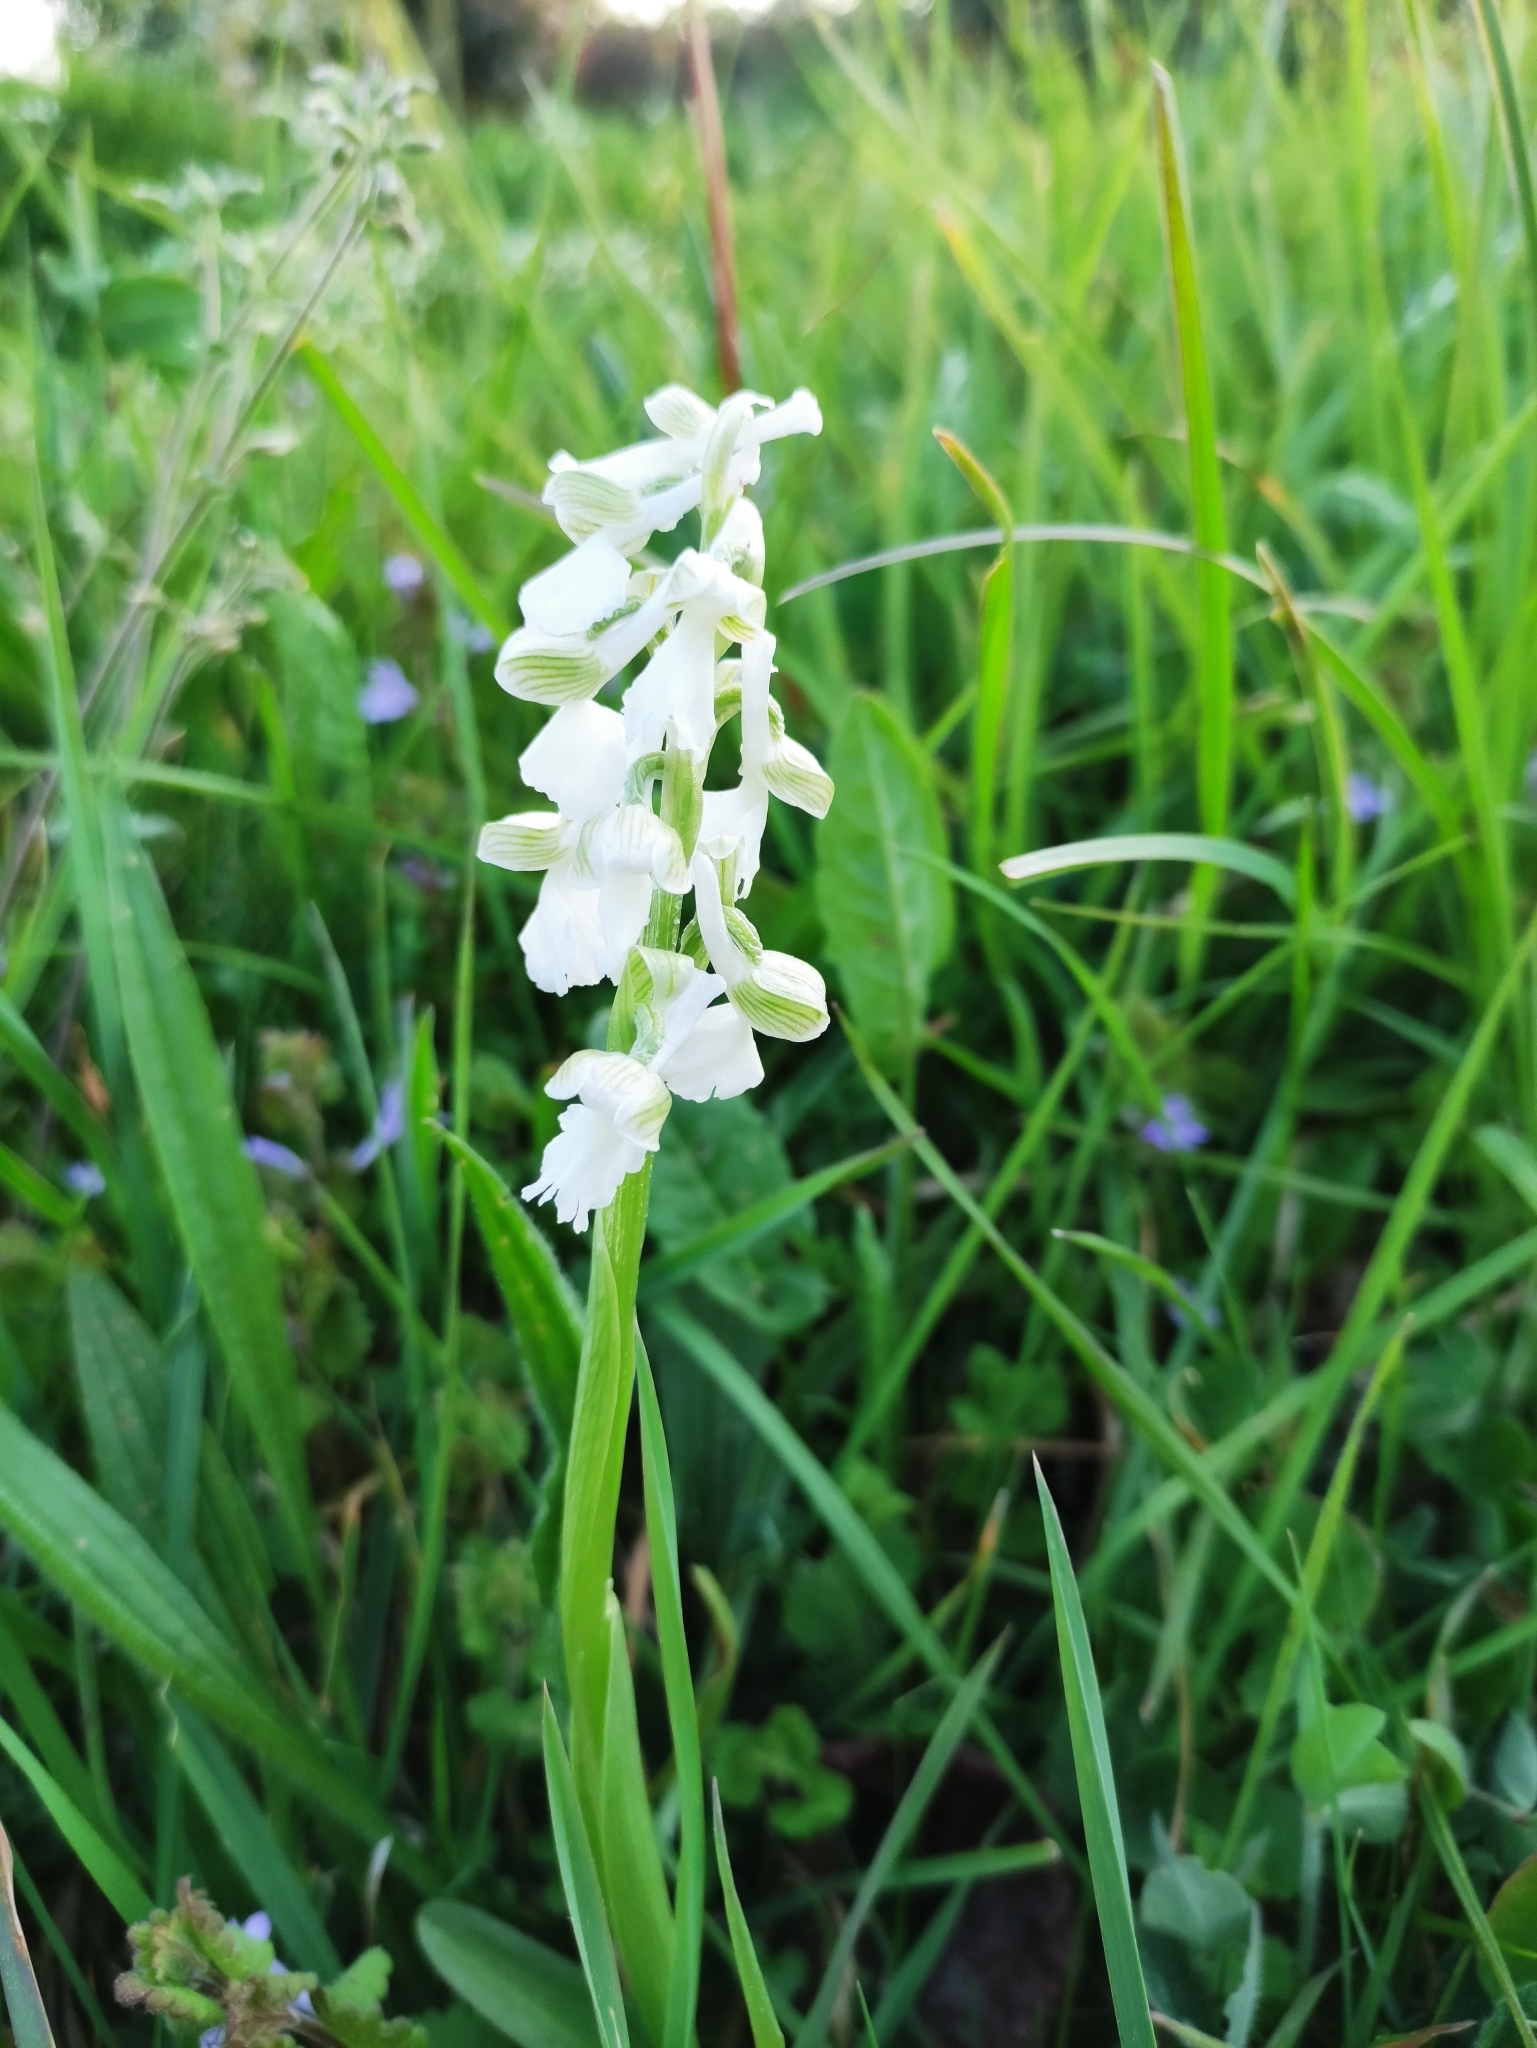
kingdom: Plantae
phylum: Tracheophyta
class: Liliopsida
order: Asparagales
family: Orchidaceae
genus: Anacamptis
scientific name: Anacamptis morio
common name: Green-winged orchid
